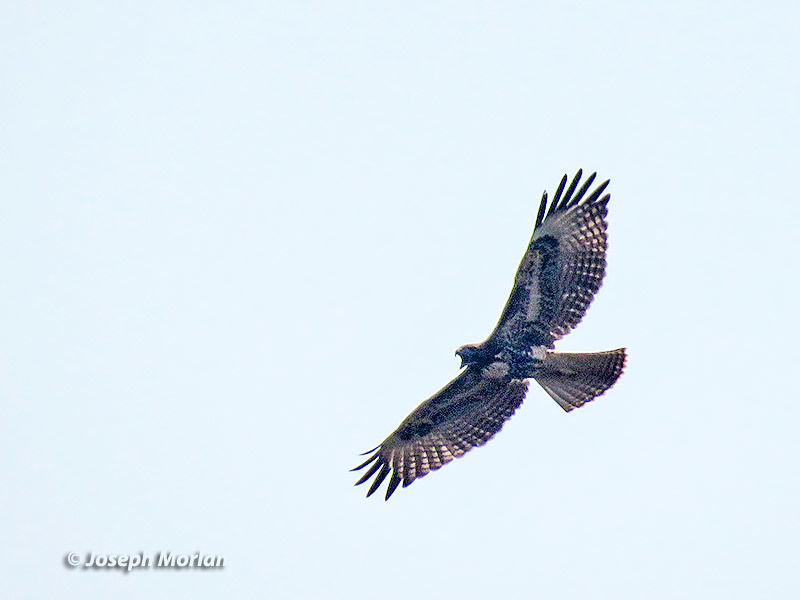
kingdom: Animalia
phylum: Chordata
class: Aves
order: Accipitriformes
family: Accipitridae
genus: Buteo
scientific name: Buteo jamaicensis
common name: Red-tailed hawk
